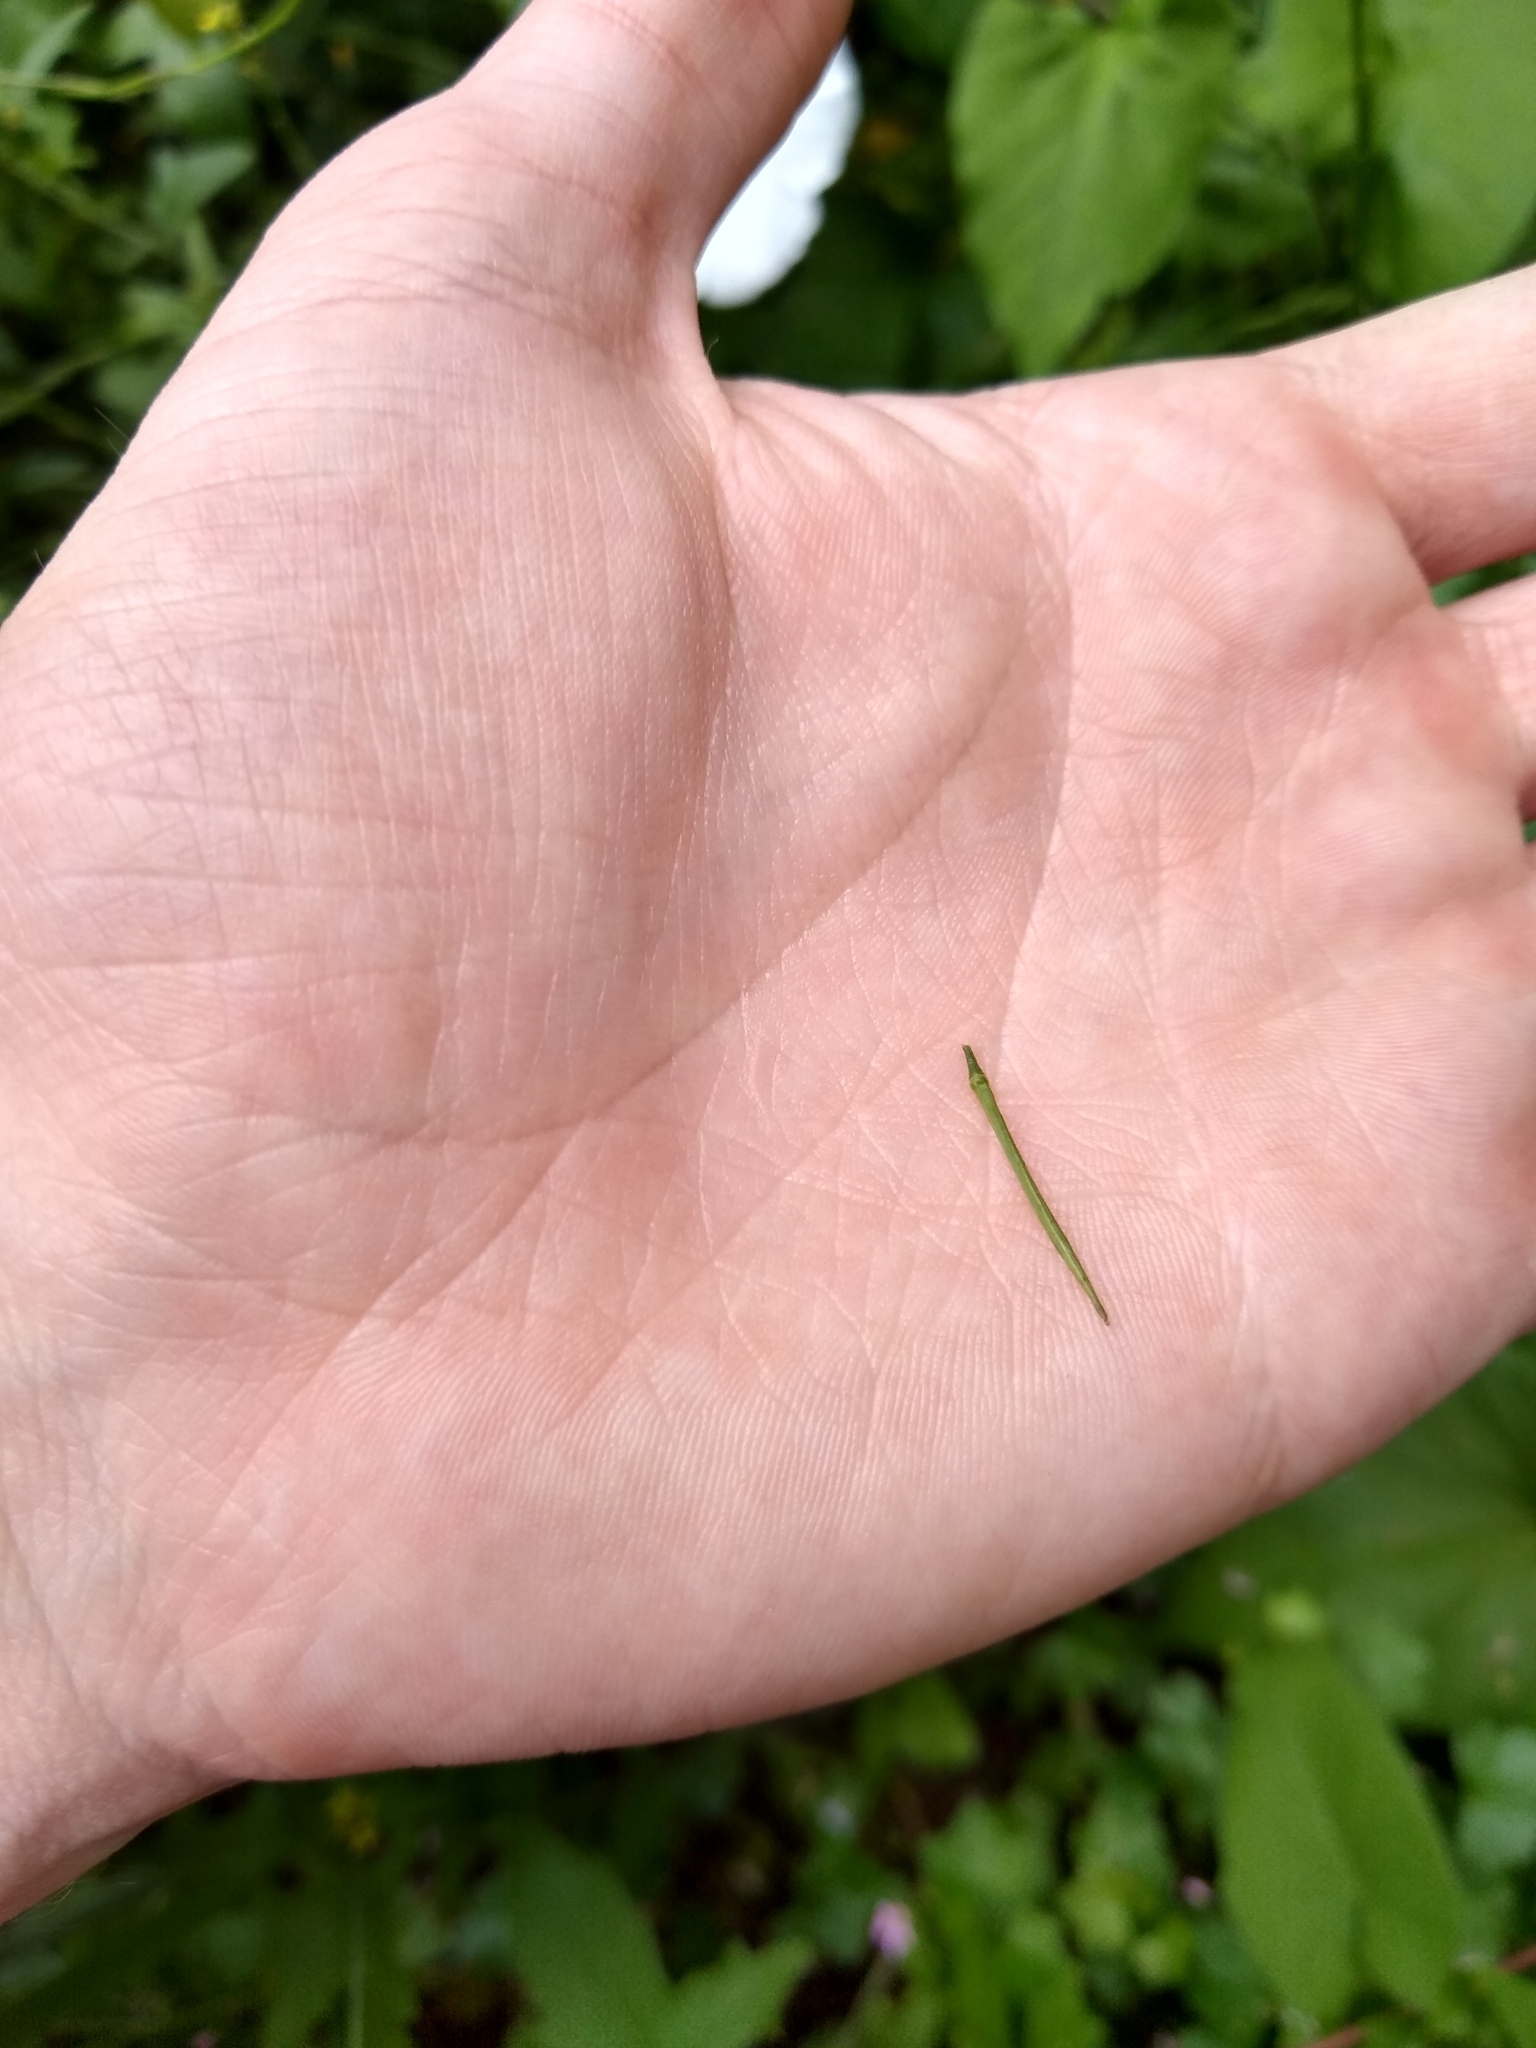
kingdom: Plantae
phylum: Tracheophyta
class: Magnoliopsida
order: Brassicales
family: Brassicaceae
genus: Sisymbrium
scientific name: Sisymbrium officinale
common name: Hedge mustard
